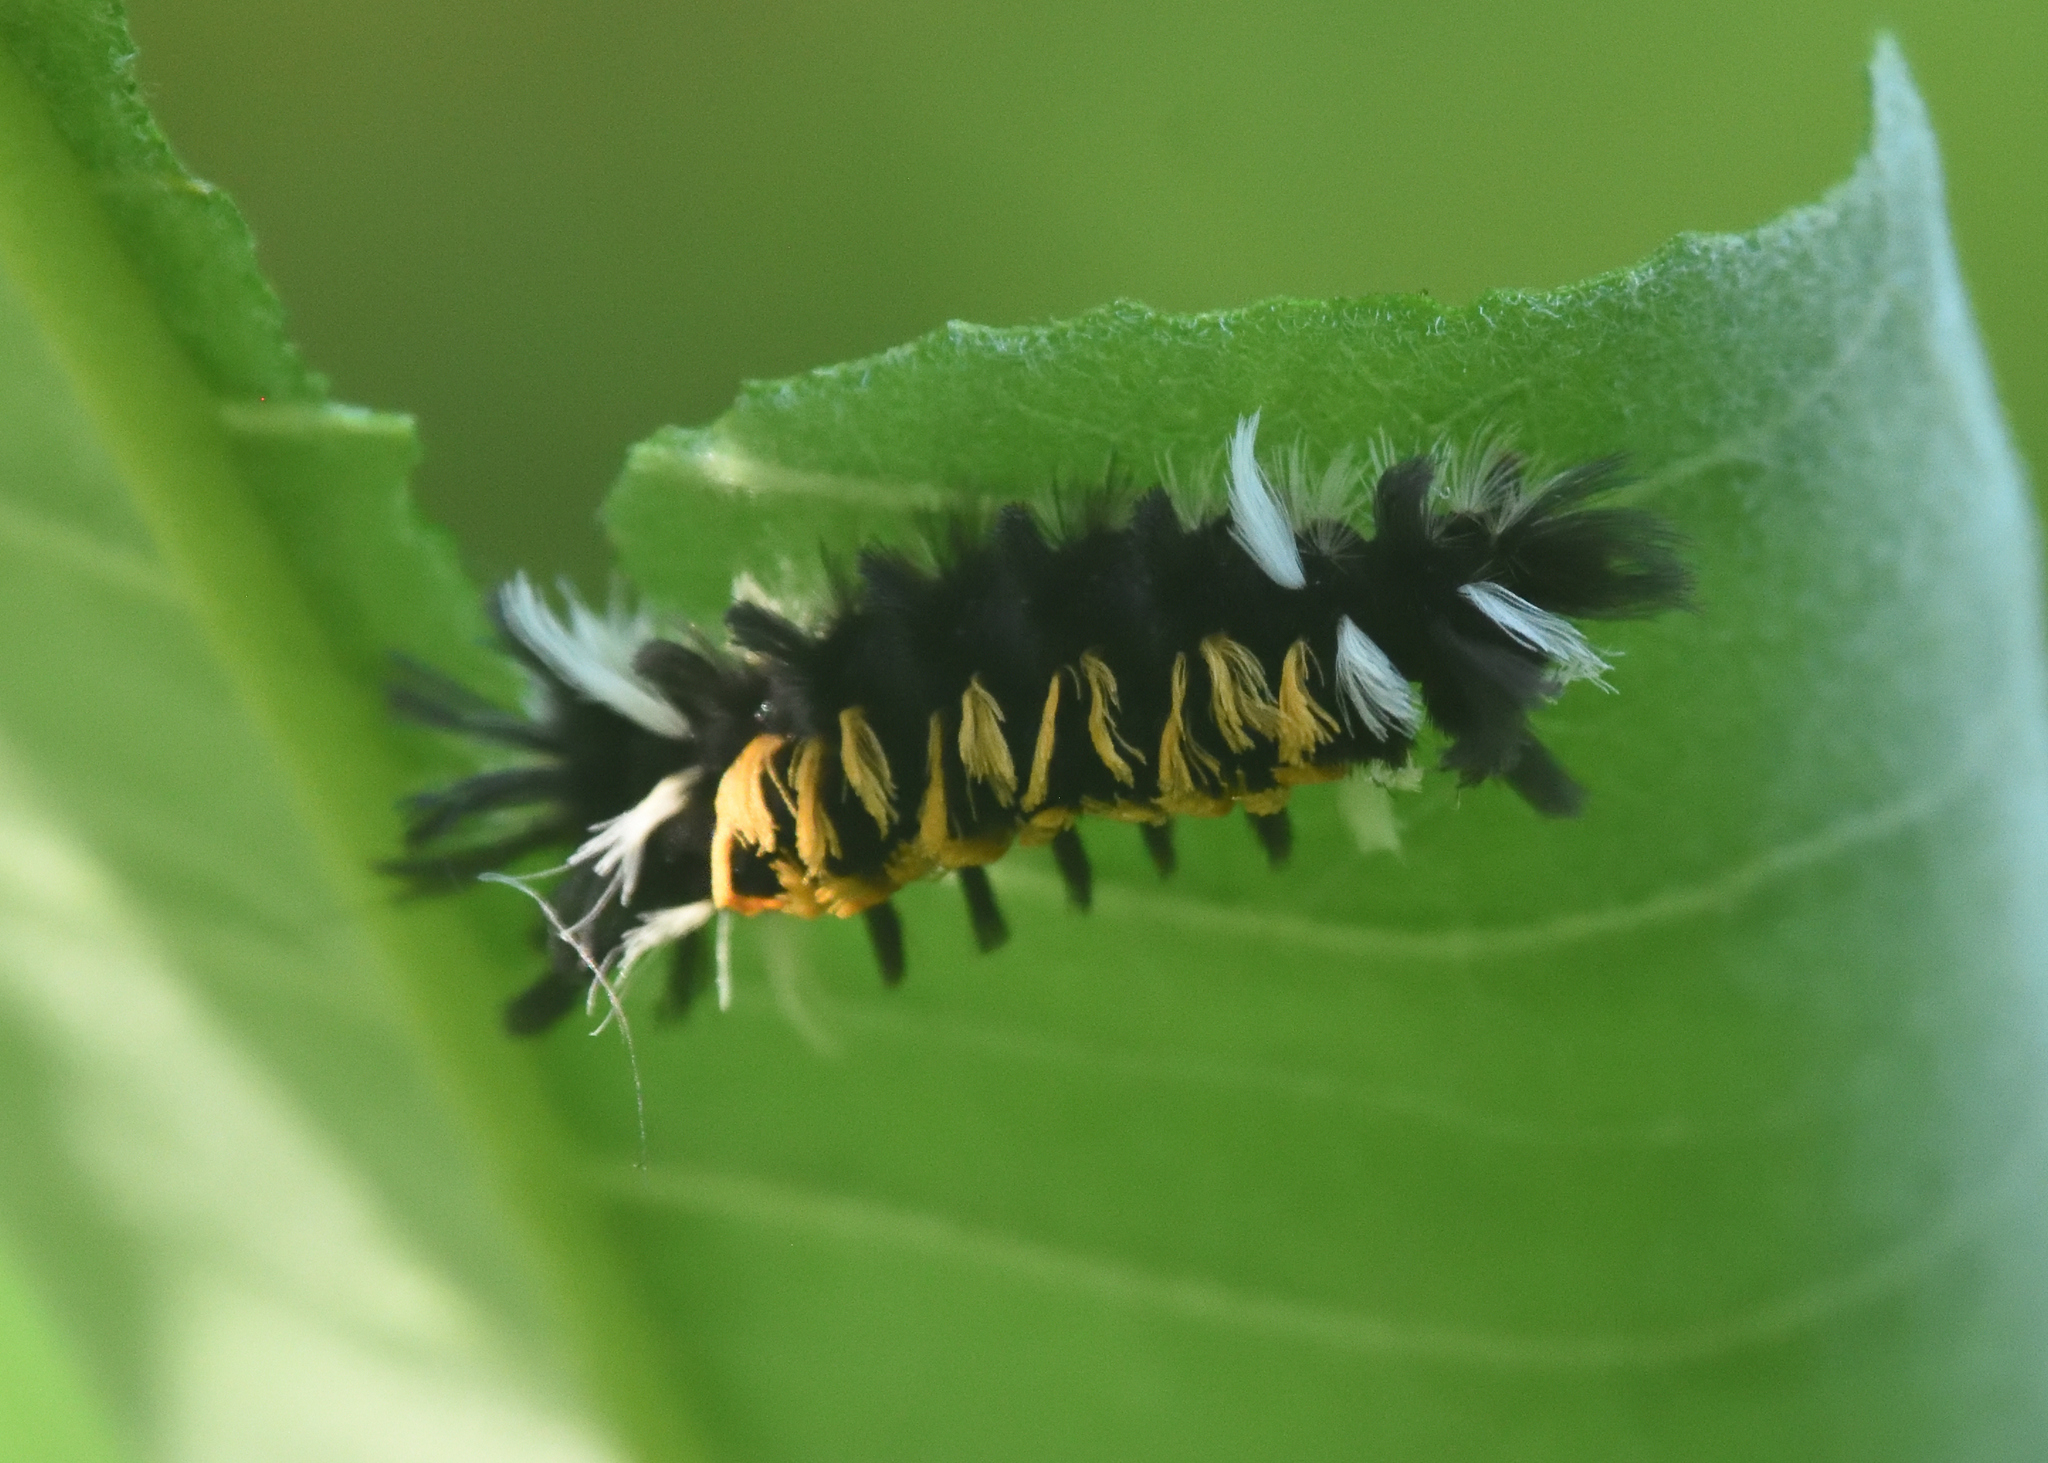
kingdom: Animalia
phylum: Arthropoda
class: Insecta
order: Lepidoptera
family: Erebidae
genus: Euchaetes
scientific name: Euchaetes egle
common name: Milkweed tussock moth
